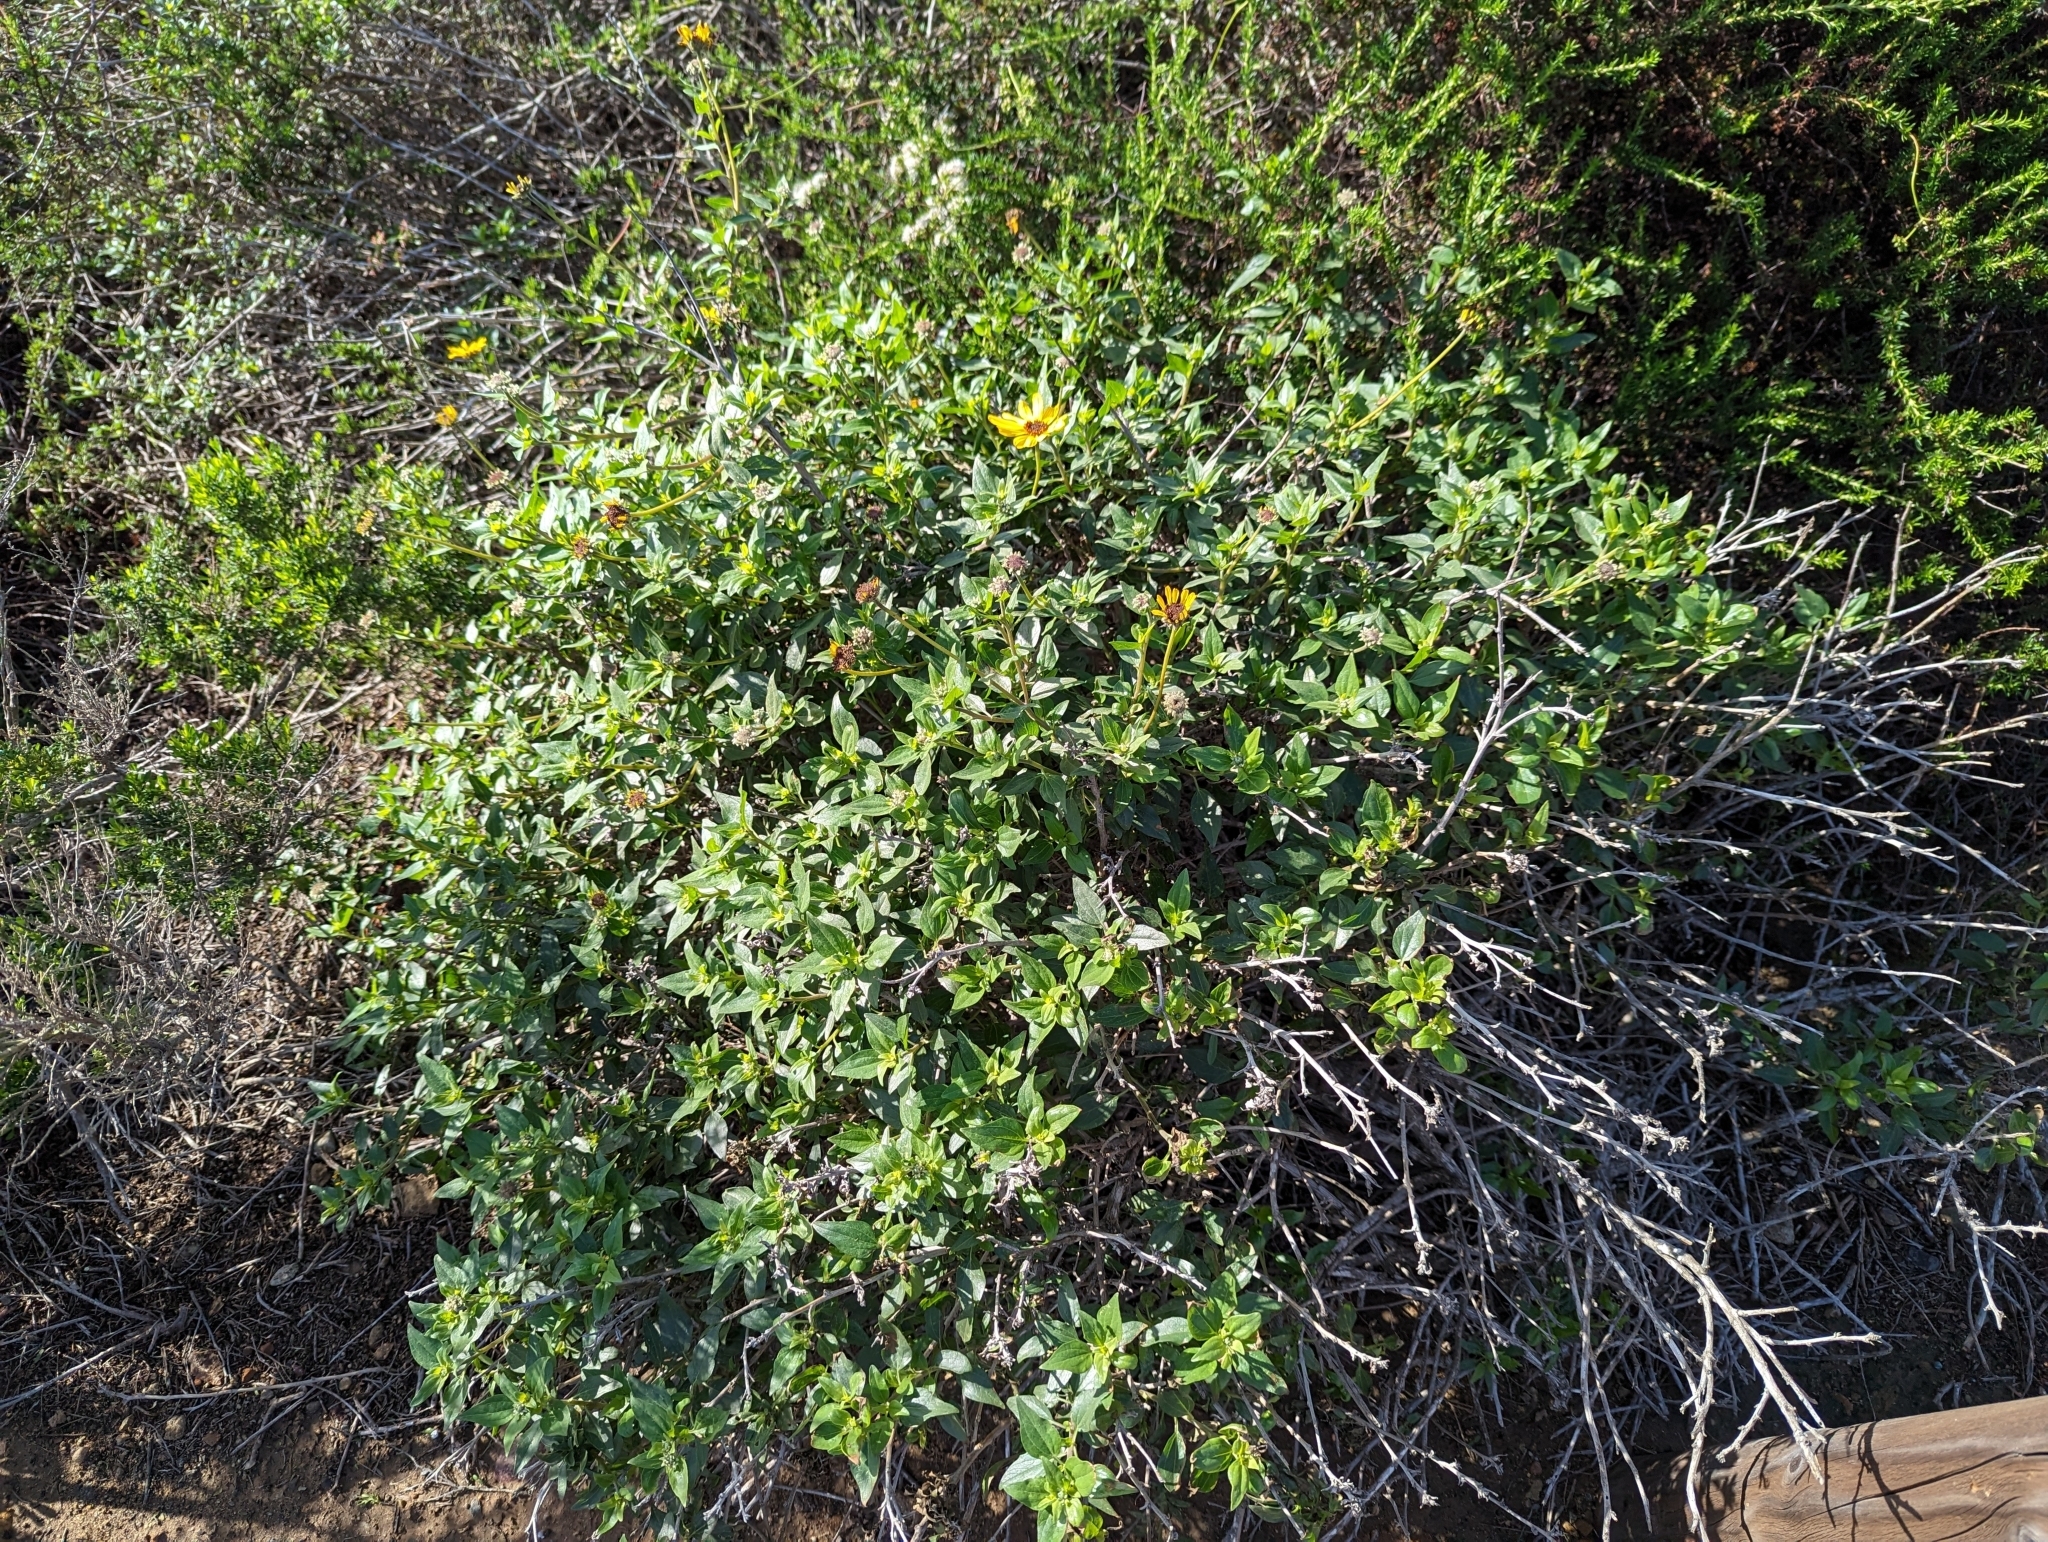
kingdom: Plantae
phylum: Tracheophyta
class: Magnoliopsida
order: Asterales
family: Asteraceae
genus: Encelia
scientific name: Encelia californica
